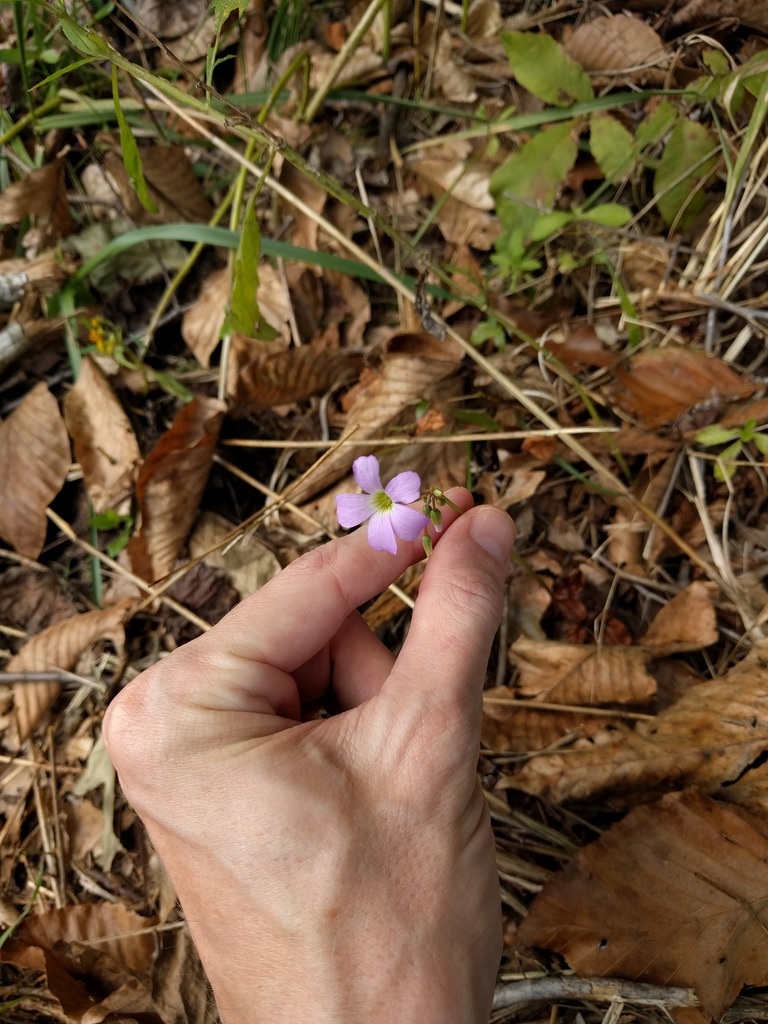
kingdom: Plantae
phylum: Tracheophyta
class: Magnoliopsida
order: Oxalidales
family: Oxalidaceae
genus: Oxalis
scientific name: Oxalis violacea
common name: Violet wood-sorrel
